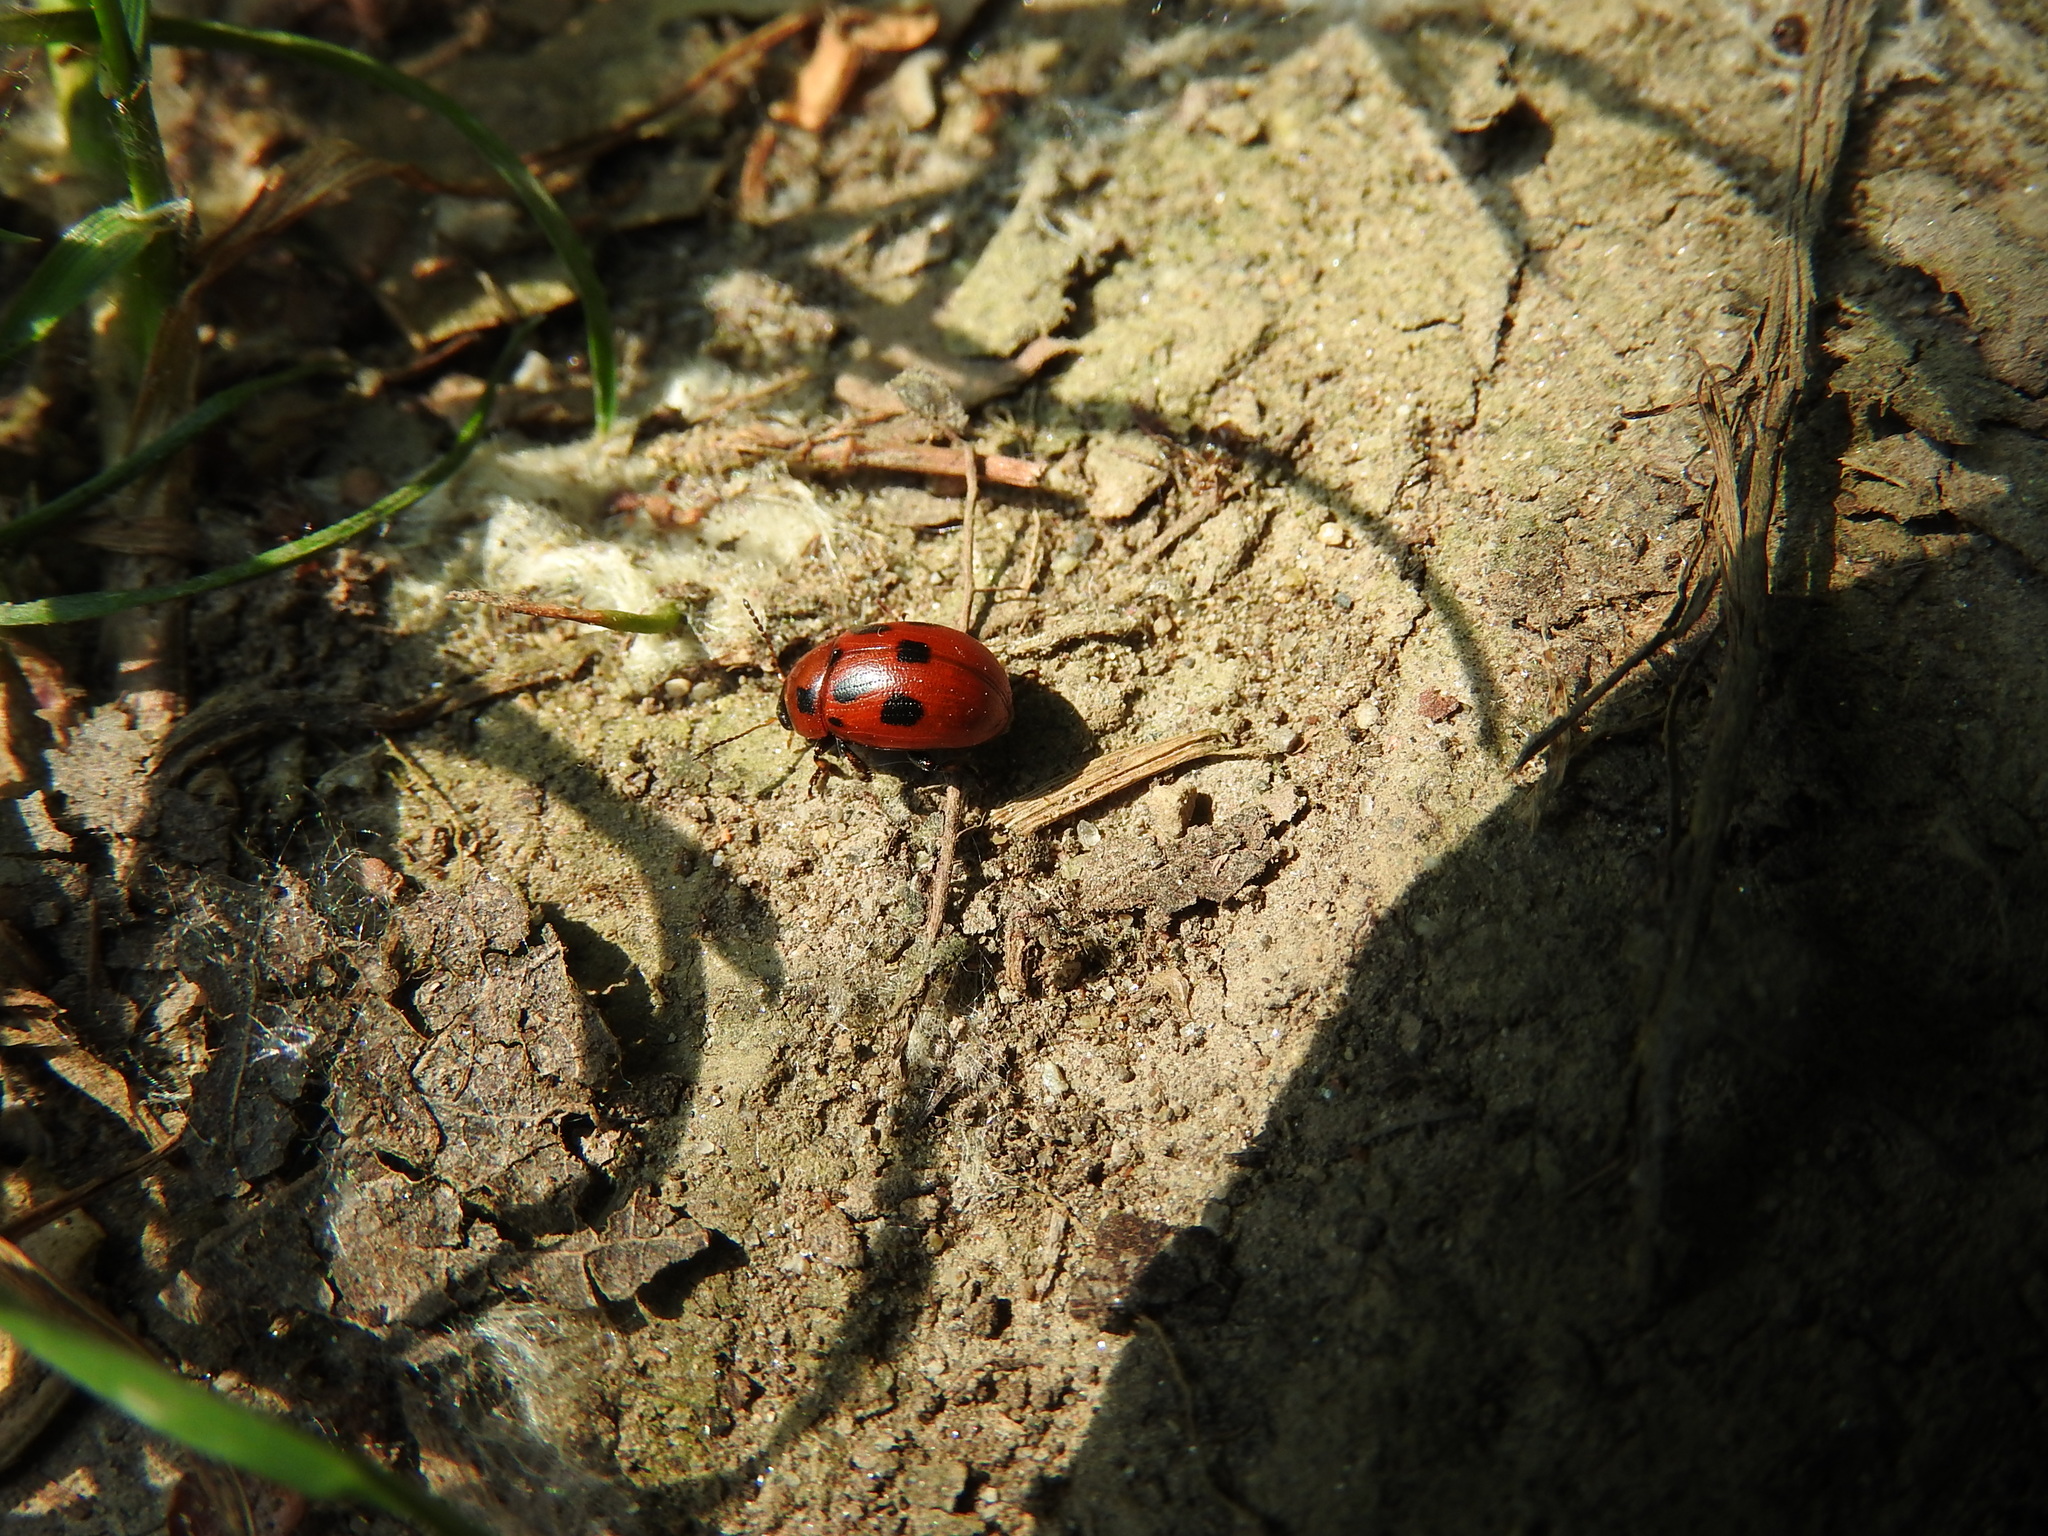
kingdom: Animalia
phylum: Arthropoda
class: Insecta
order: Coleoptera
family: Chrysomelidae
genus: Gonioctena
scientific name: Gonioctena fornicata
